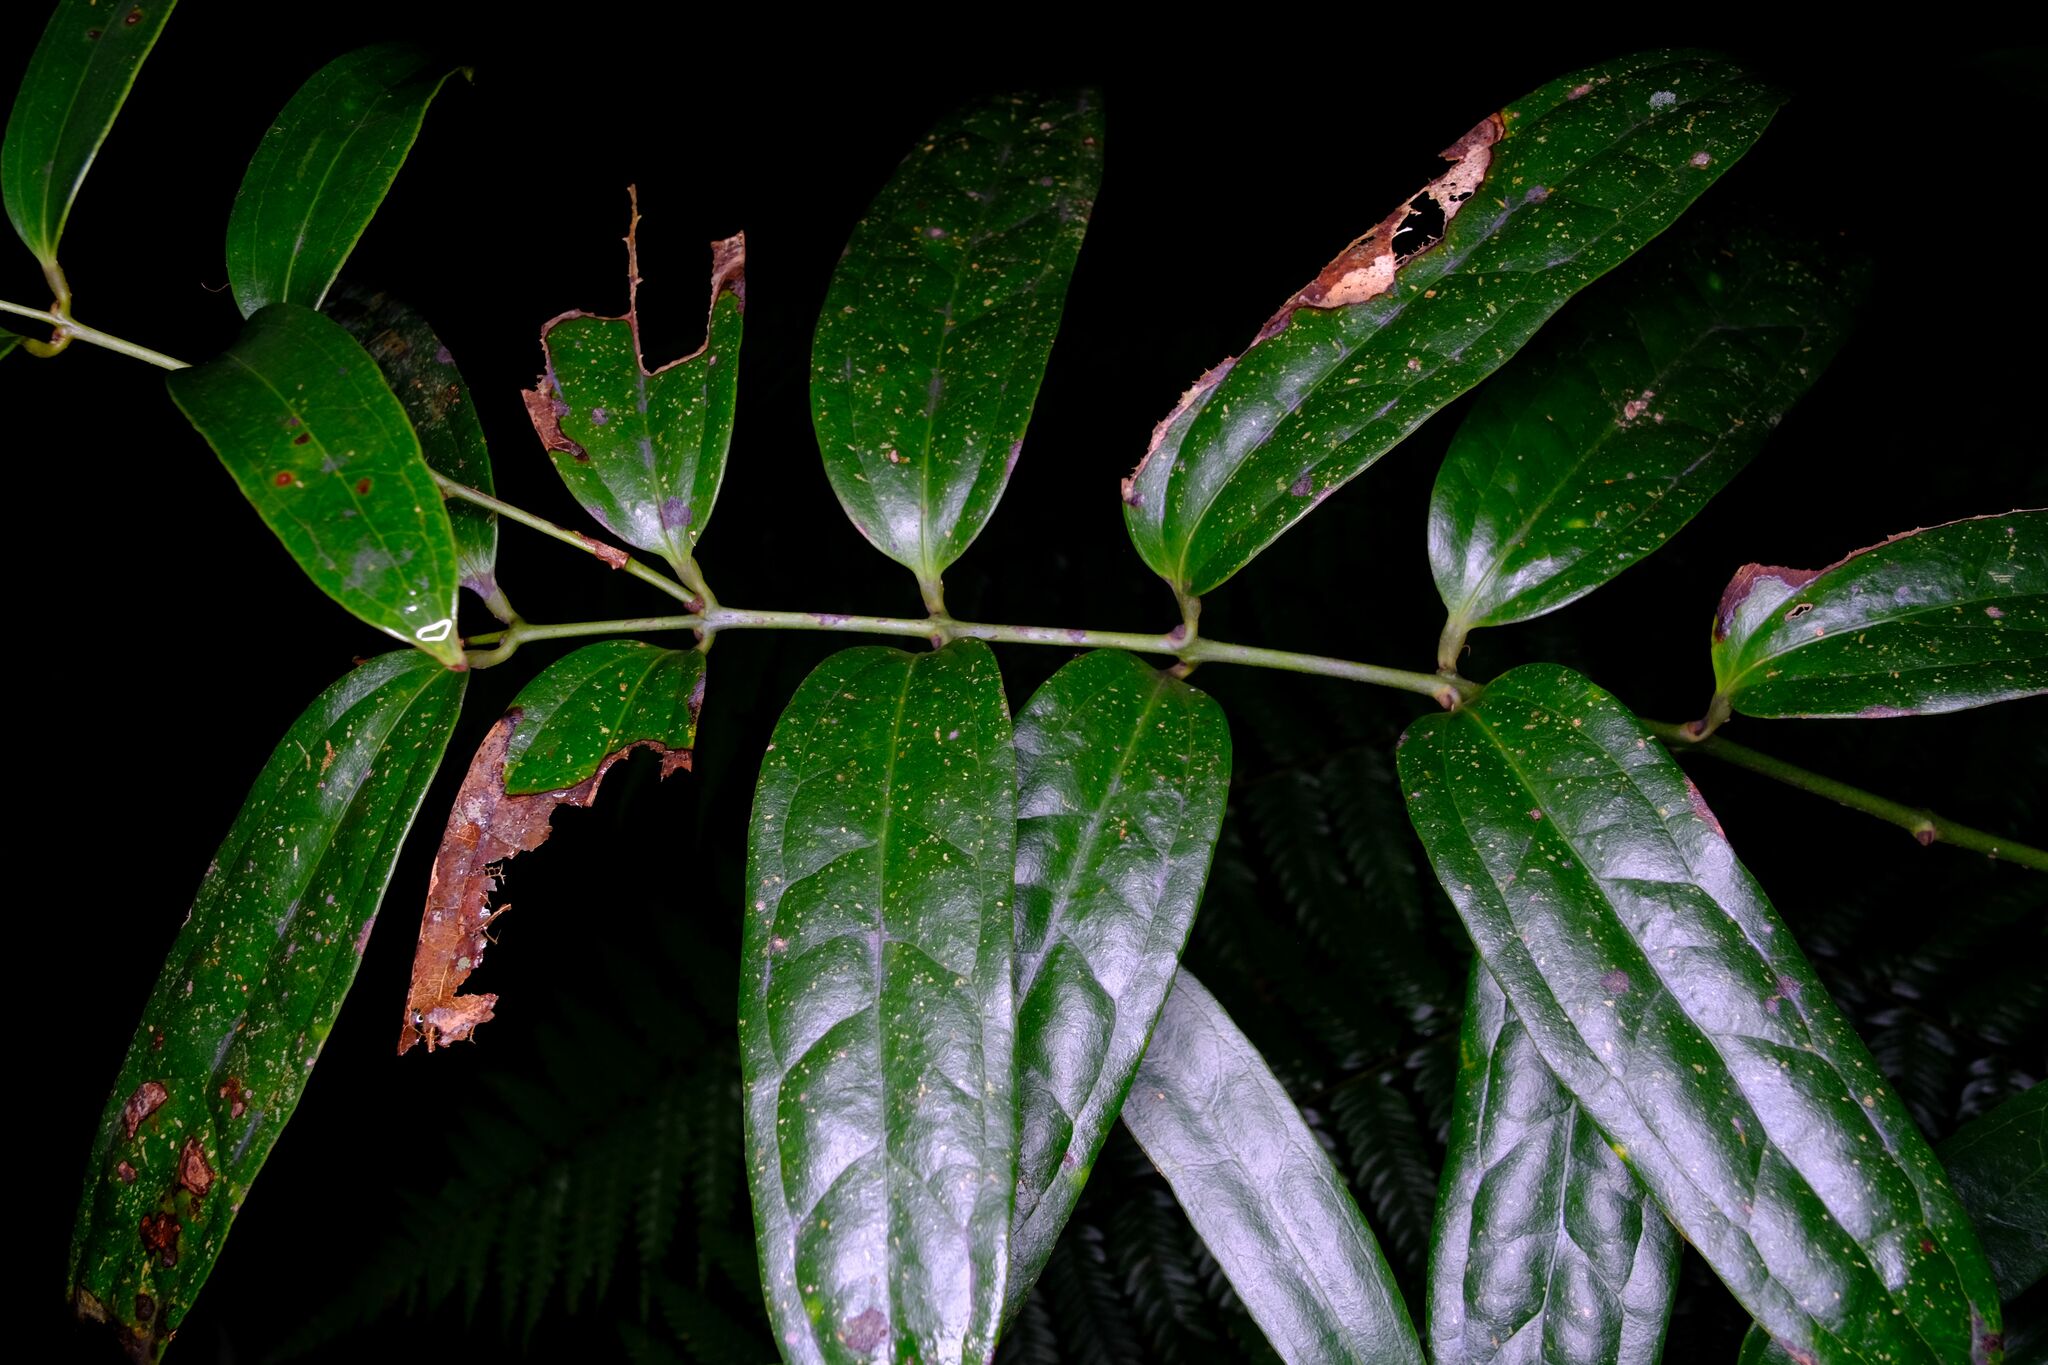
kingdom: Plantae
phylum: Tracheophyta
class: Liliopsida
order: Liliales
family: Ripogonaceae
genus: Ripogonum
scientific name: Ripogonum discolor
